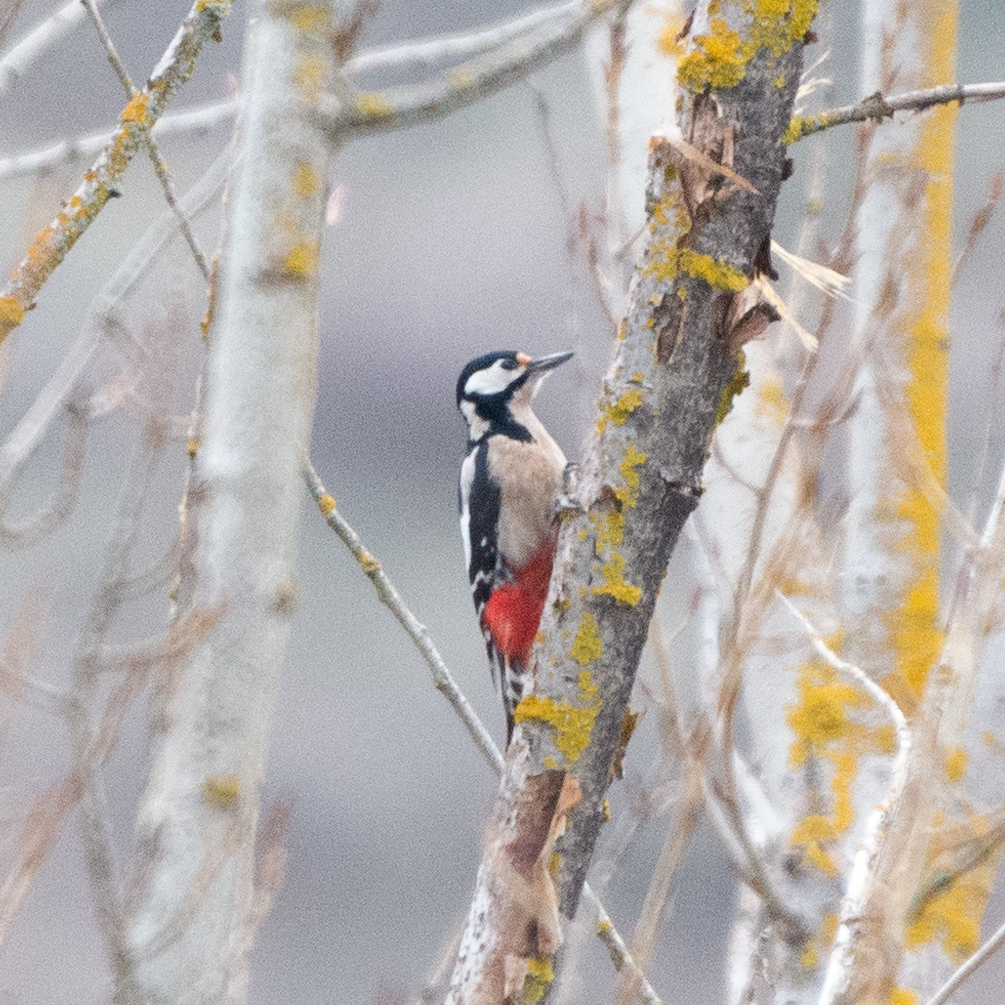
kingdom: Animalia
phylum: Chordata
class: Aves
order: Piciformes
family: Picidae
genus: Dendrocopos
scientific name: Dendrocopos major
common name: Great spotted woodpecker
